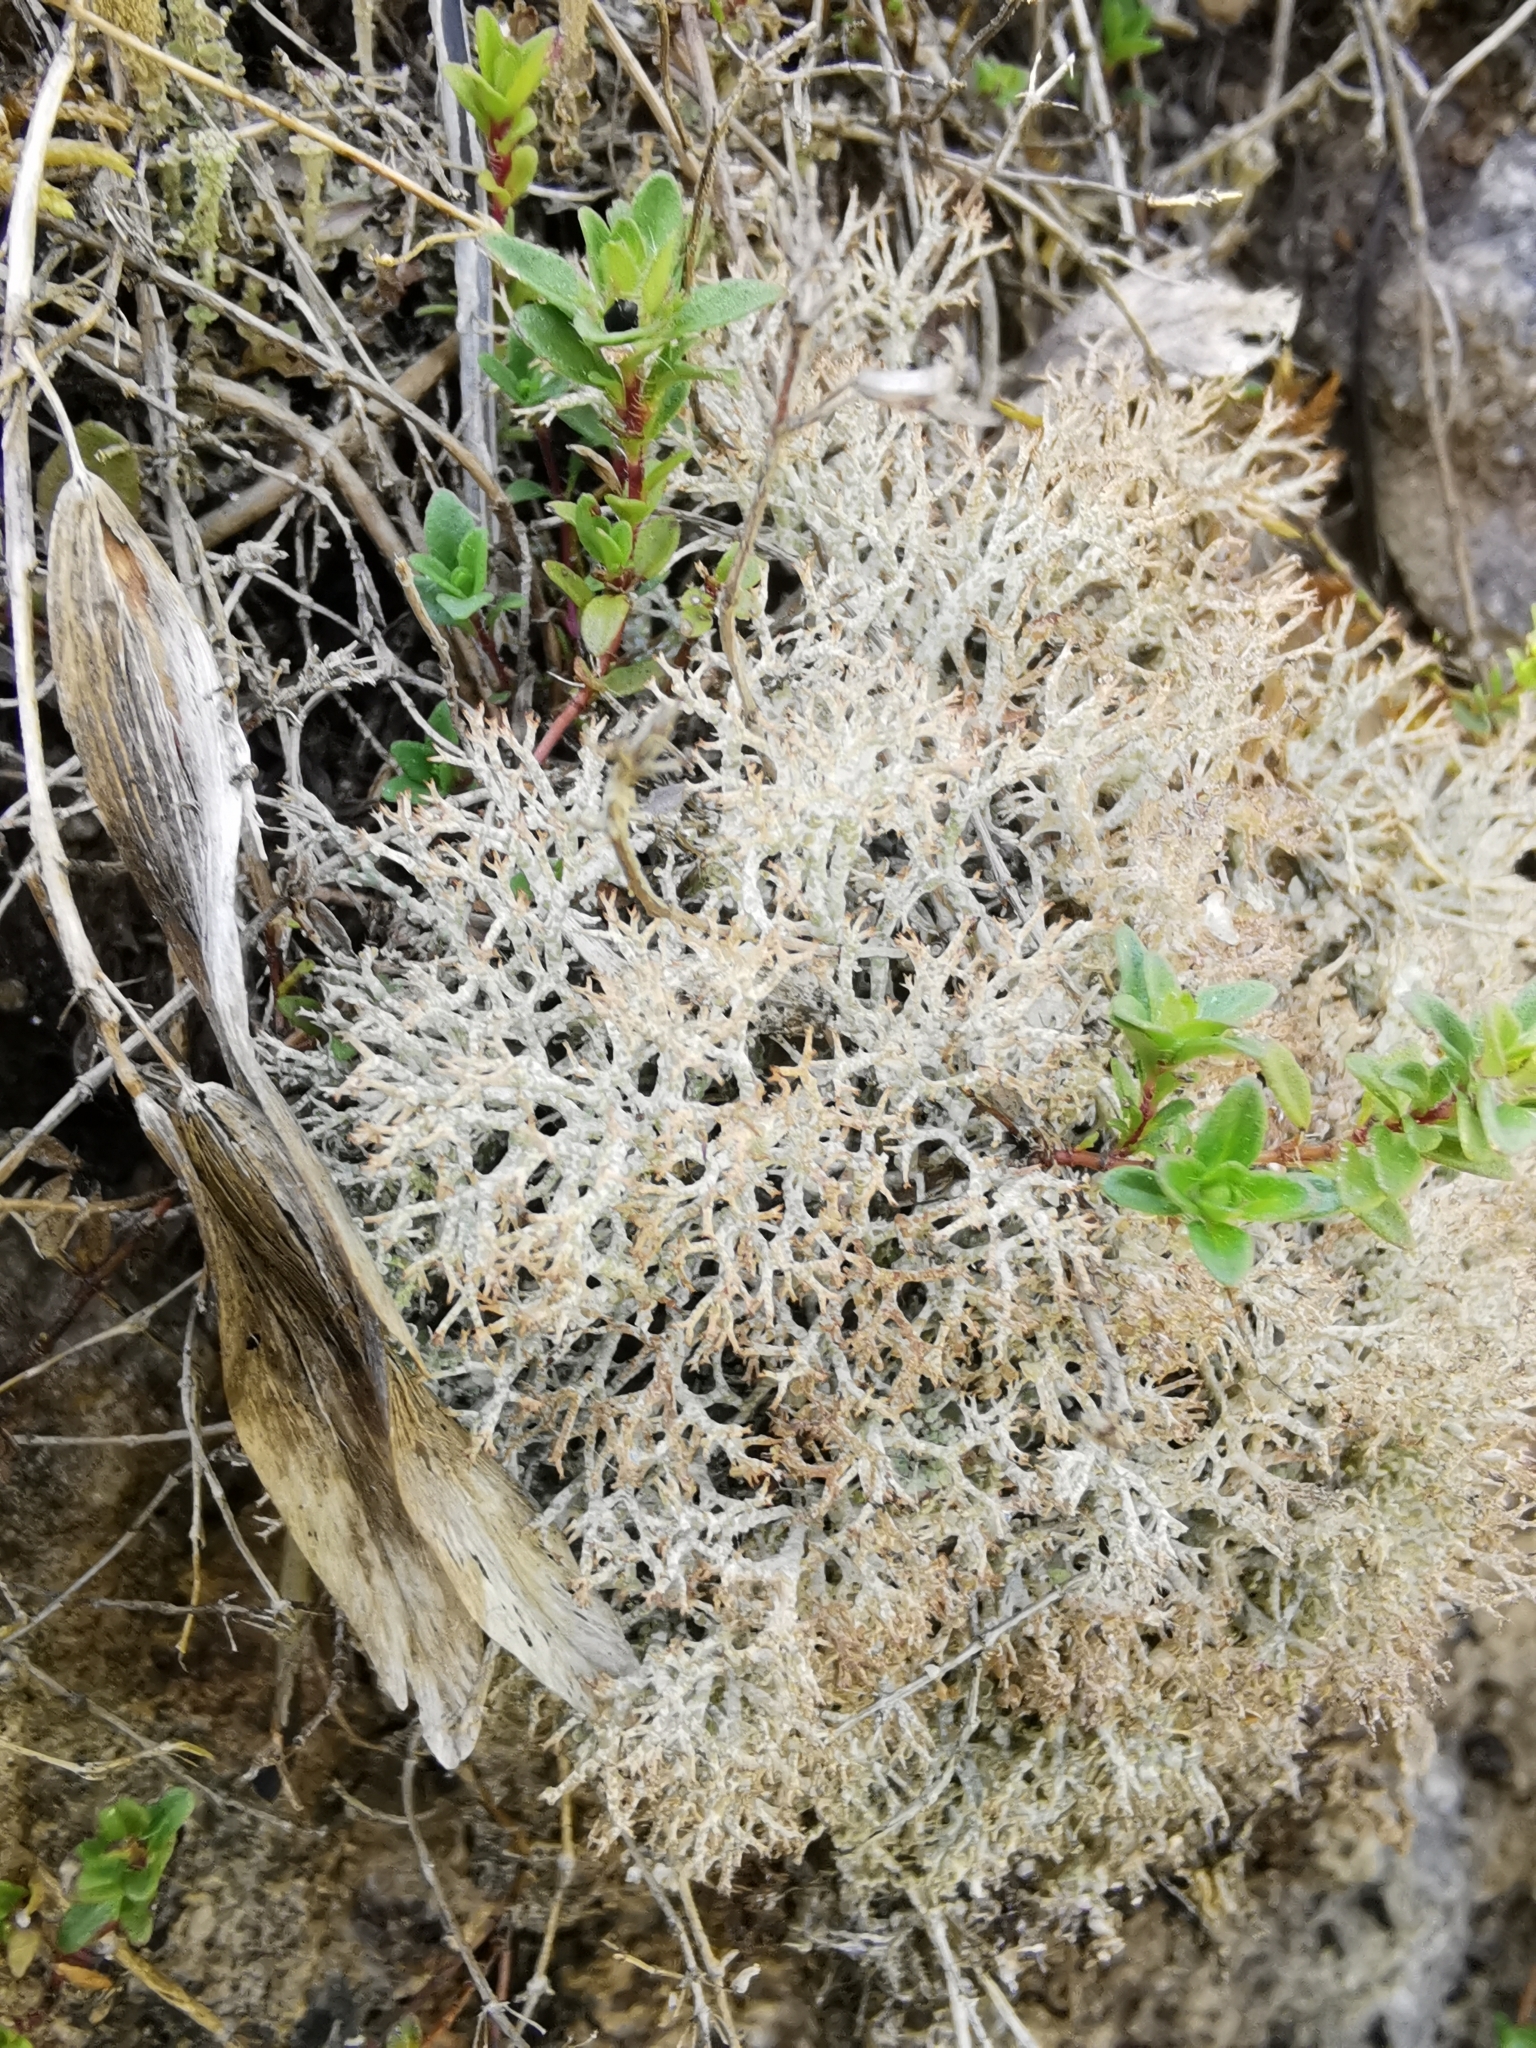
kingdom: Fungi
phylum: Ascomycota
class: Lecanoromycetes
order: Lecanorales
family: Cladoniaceae
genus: Cladonia
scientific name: Cladonia rangiformis
